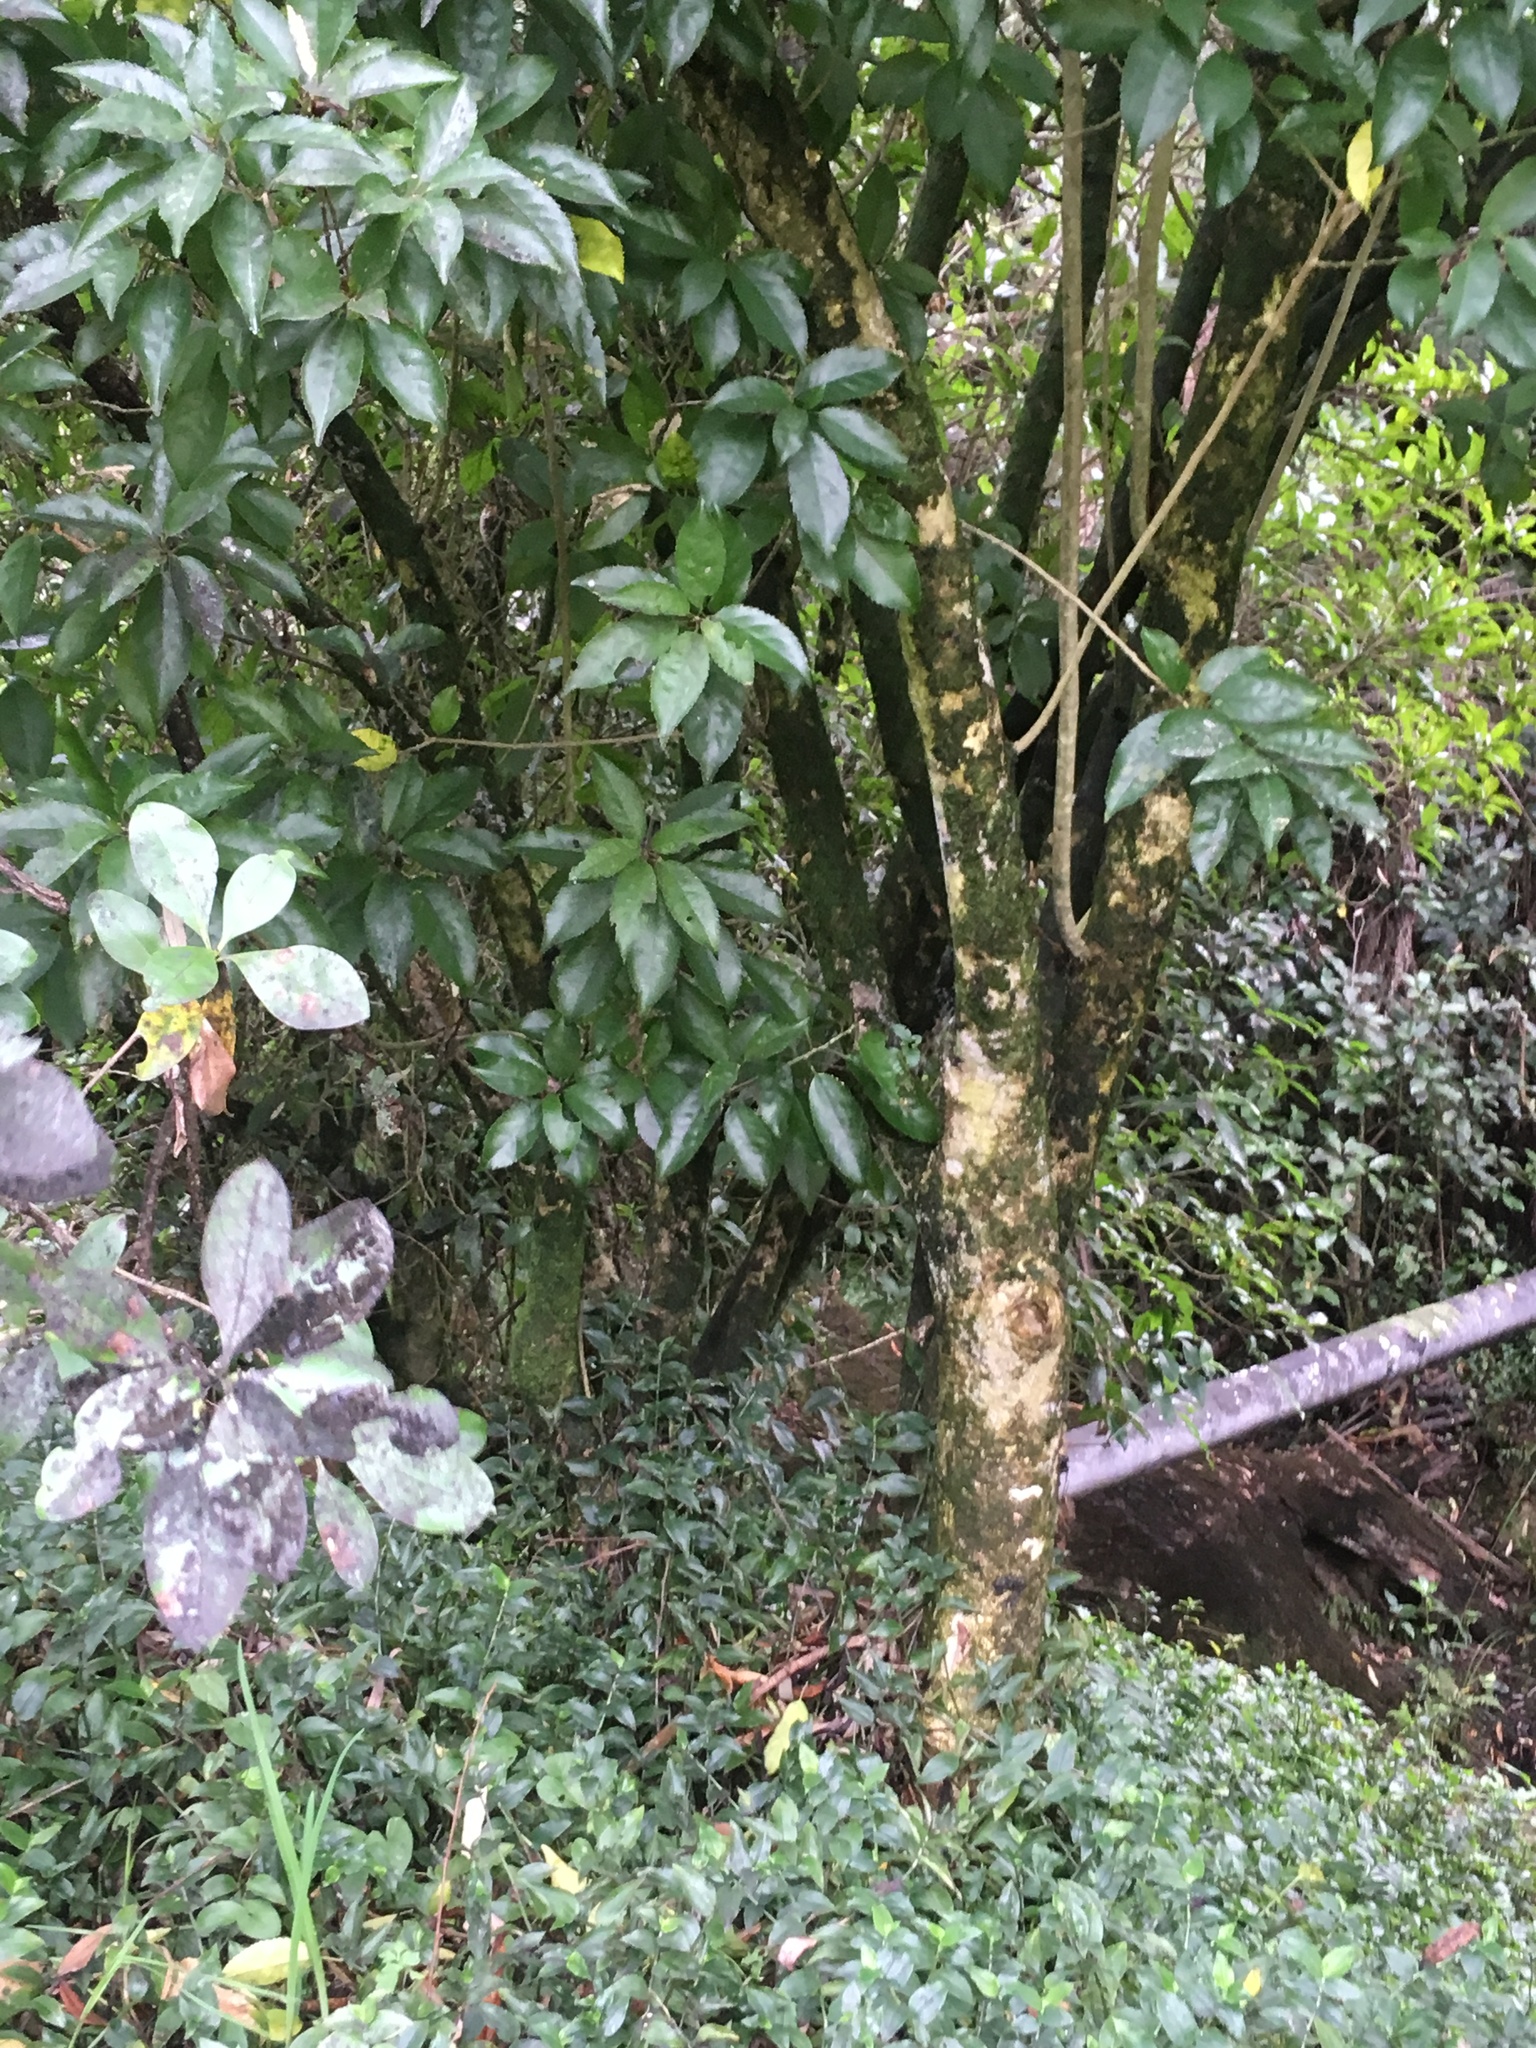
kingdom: Plantae
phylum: Tracheophyta
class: Liliopsida
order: Commelinales
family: Commelinaceae
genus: Tradescantia
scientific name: Tradescantia fluminensis
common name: Wandering-jew
